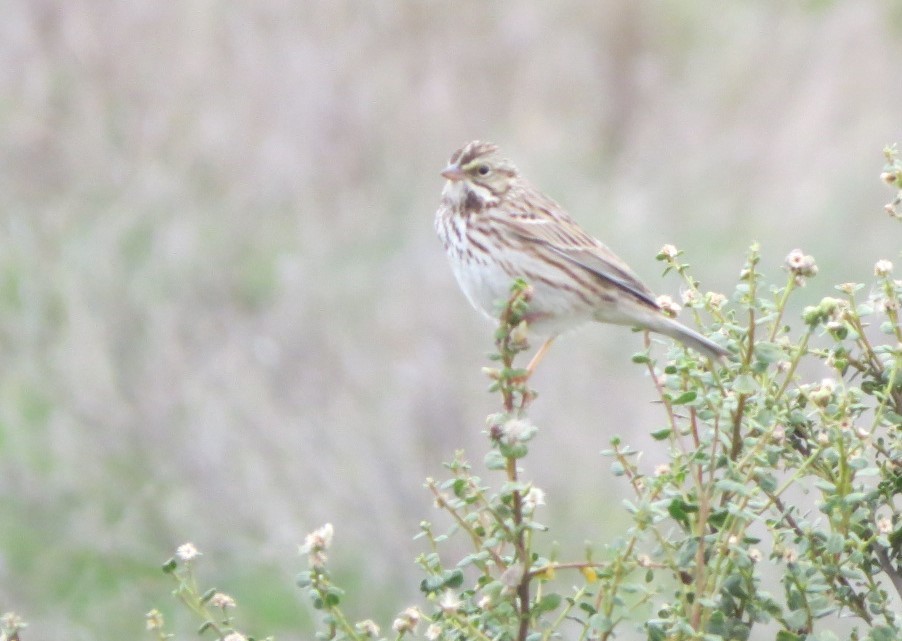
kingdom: Animalia
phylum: Chordata
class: Aves
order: Passeriformes
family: Passerellidae
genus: Passerculus
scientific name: Passerculus sandwichensis
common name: Savannah sparrow
